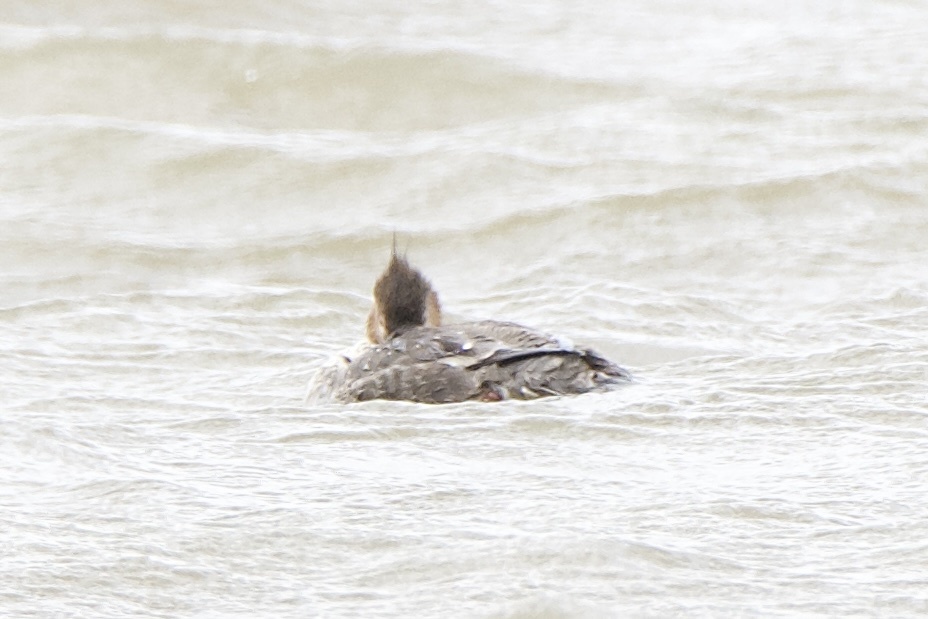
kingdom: Animalia
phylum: Chordata
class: Aves
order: Anseriformes
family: Anatidae
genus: Mergus
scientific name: Mergus serrator
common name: Red-breasted merganser
